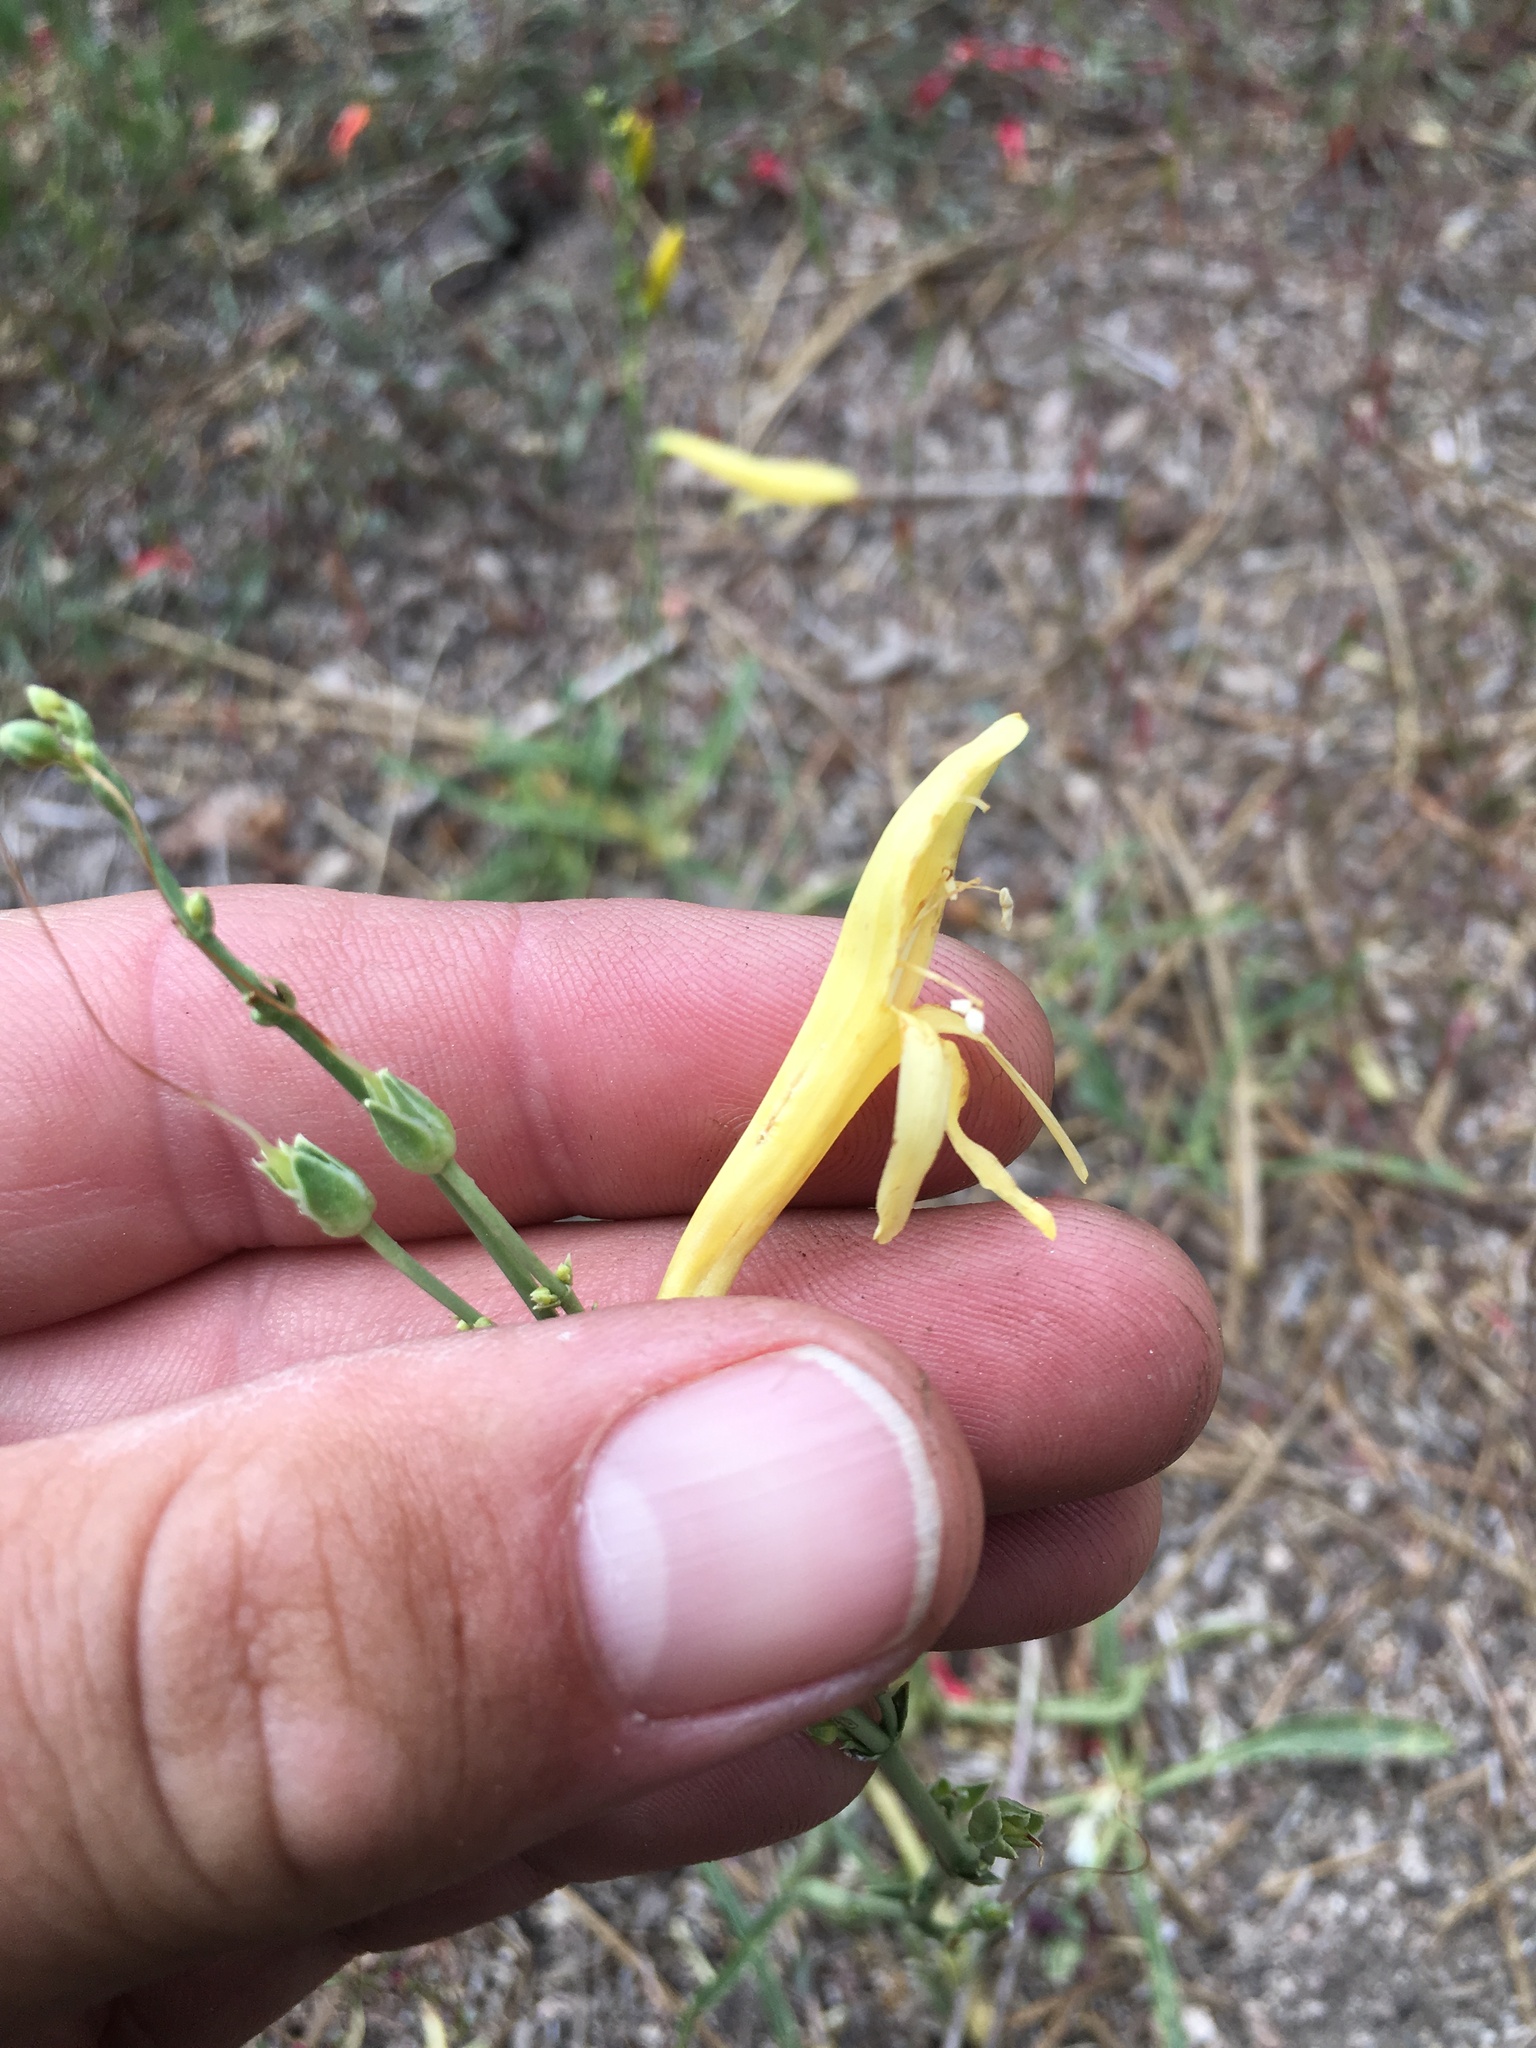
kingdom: Plantae
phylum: Tracheophyta
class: Magnoliopsida
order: Lamiales
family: Plantaginaceae
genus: Penstemon
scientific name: Penstemon labrosus
